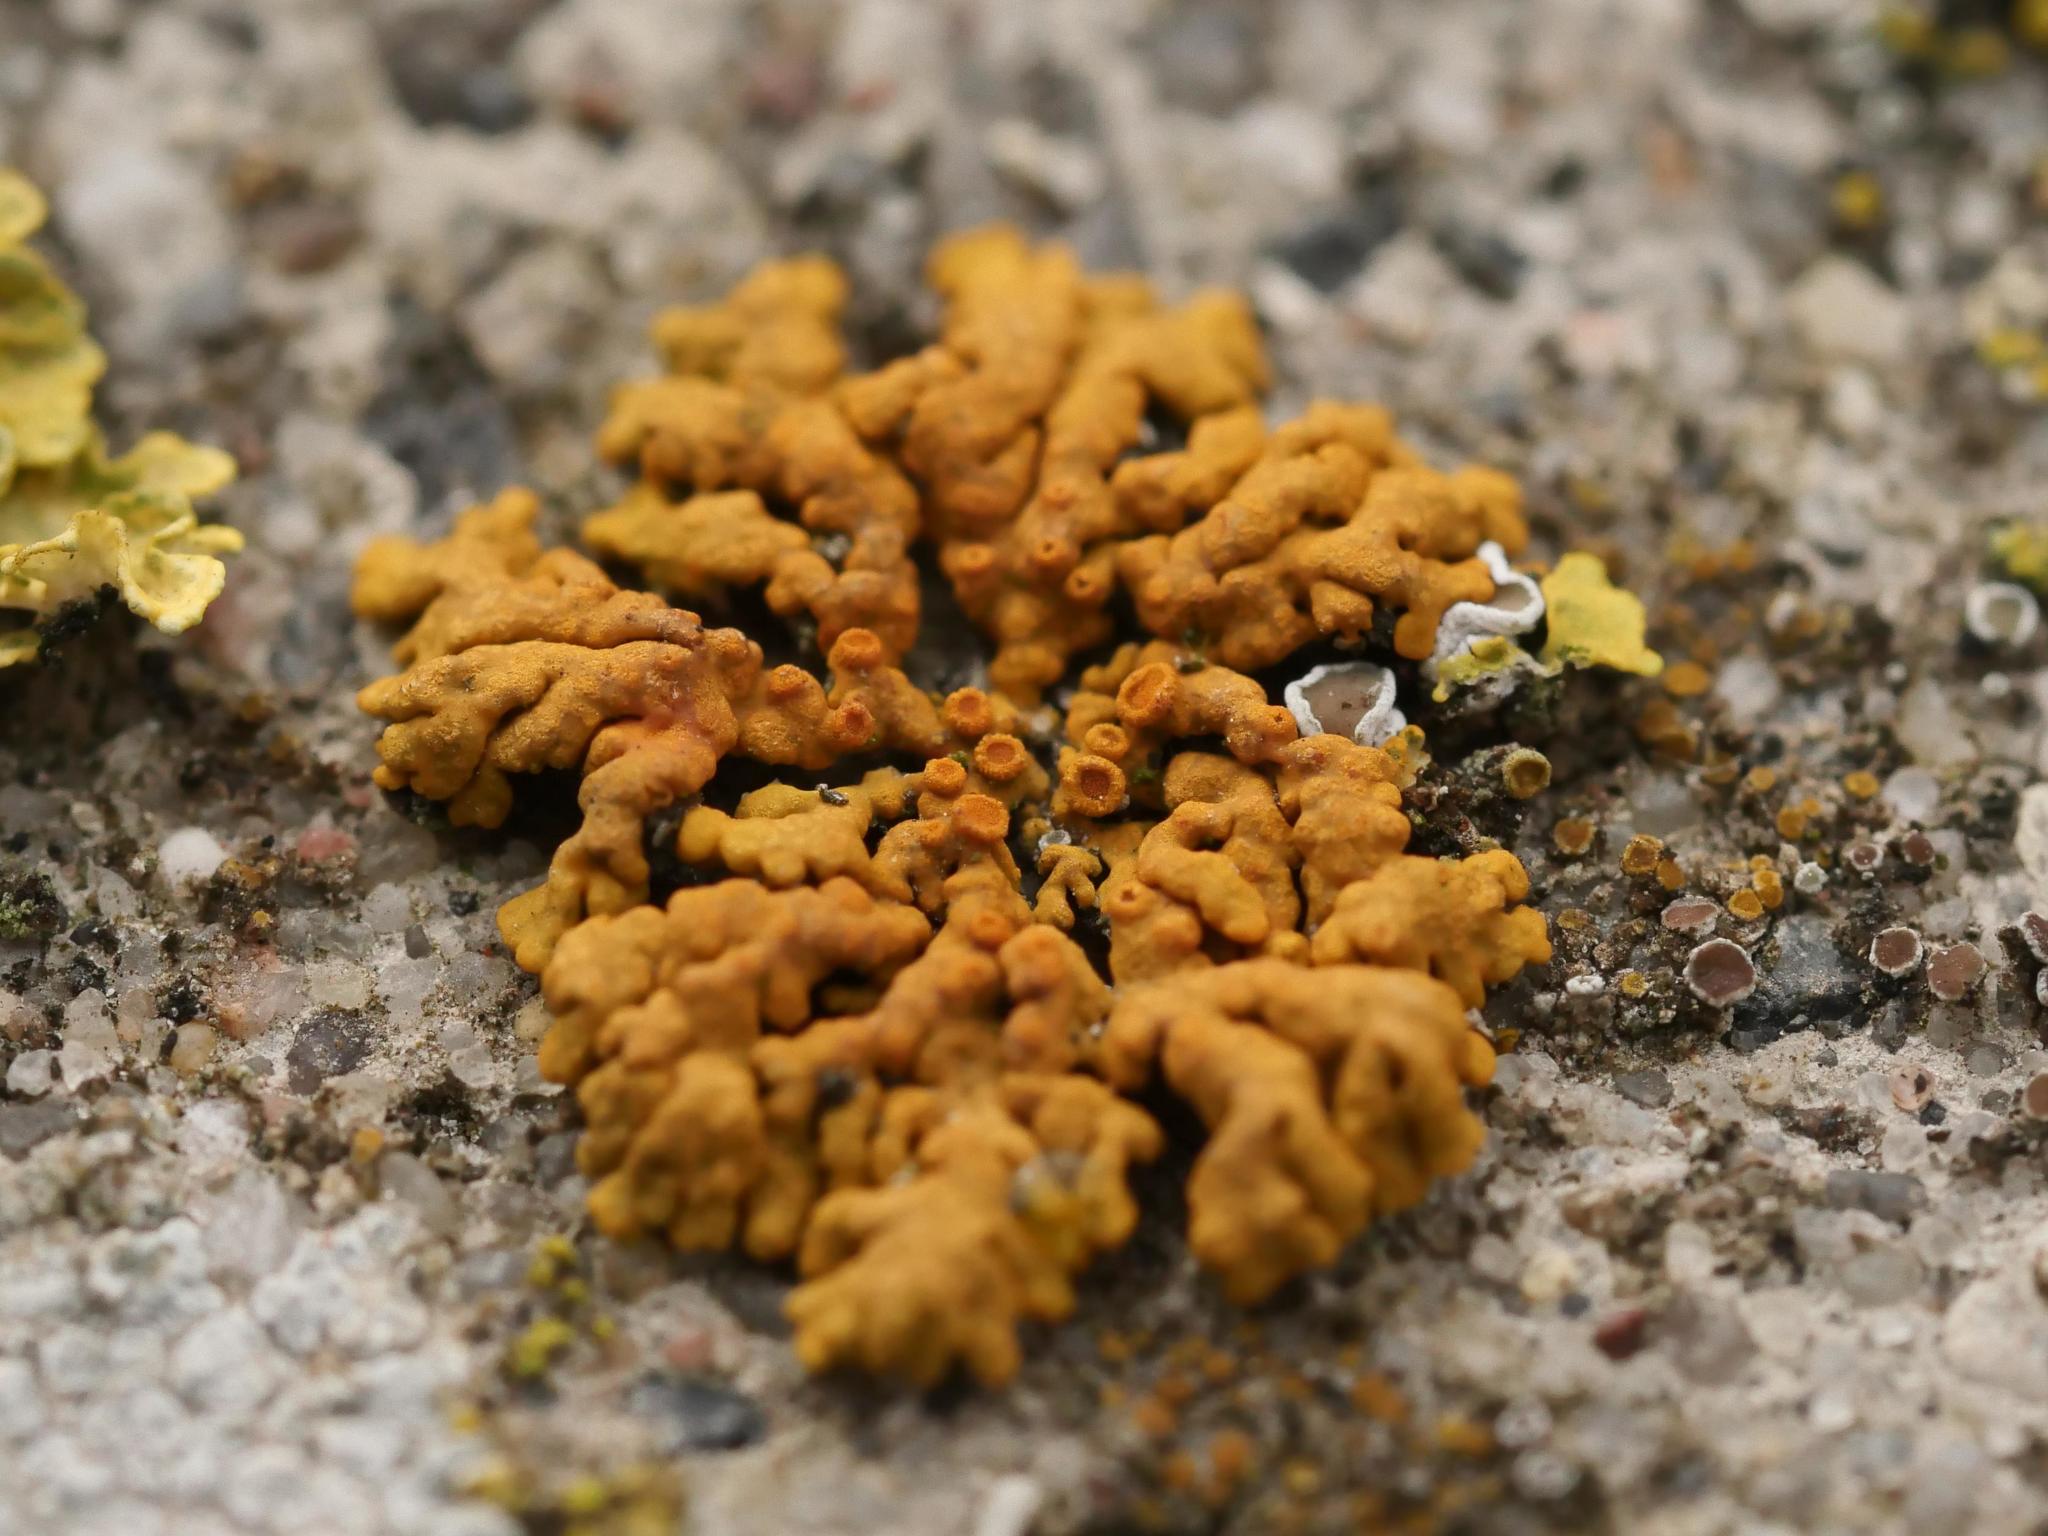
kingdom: Fungi
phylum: Ascomycota
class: Lecanoromycetes
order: Teloschistales
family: Teloschistaceae
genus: Xanthoria
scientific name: Xanthoria elegans
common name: Elegant sunburst lichen
